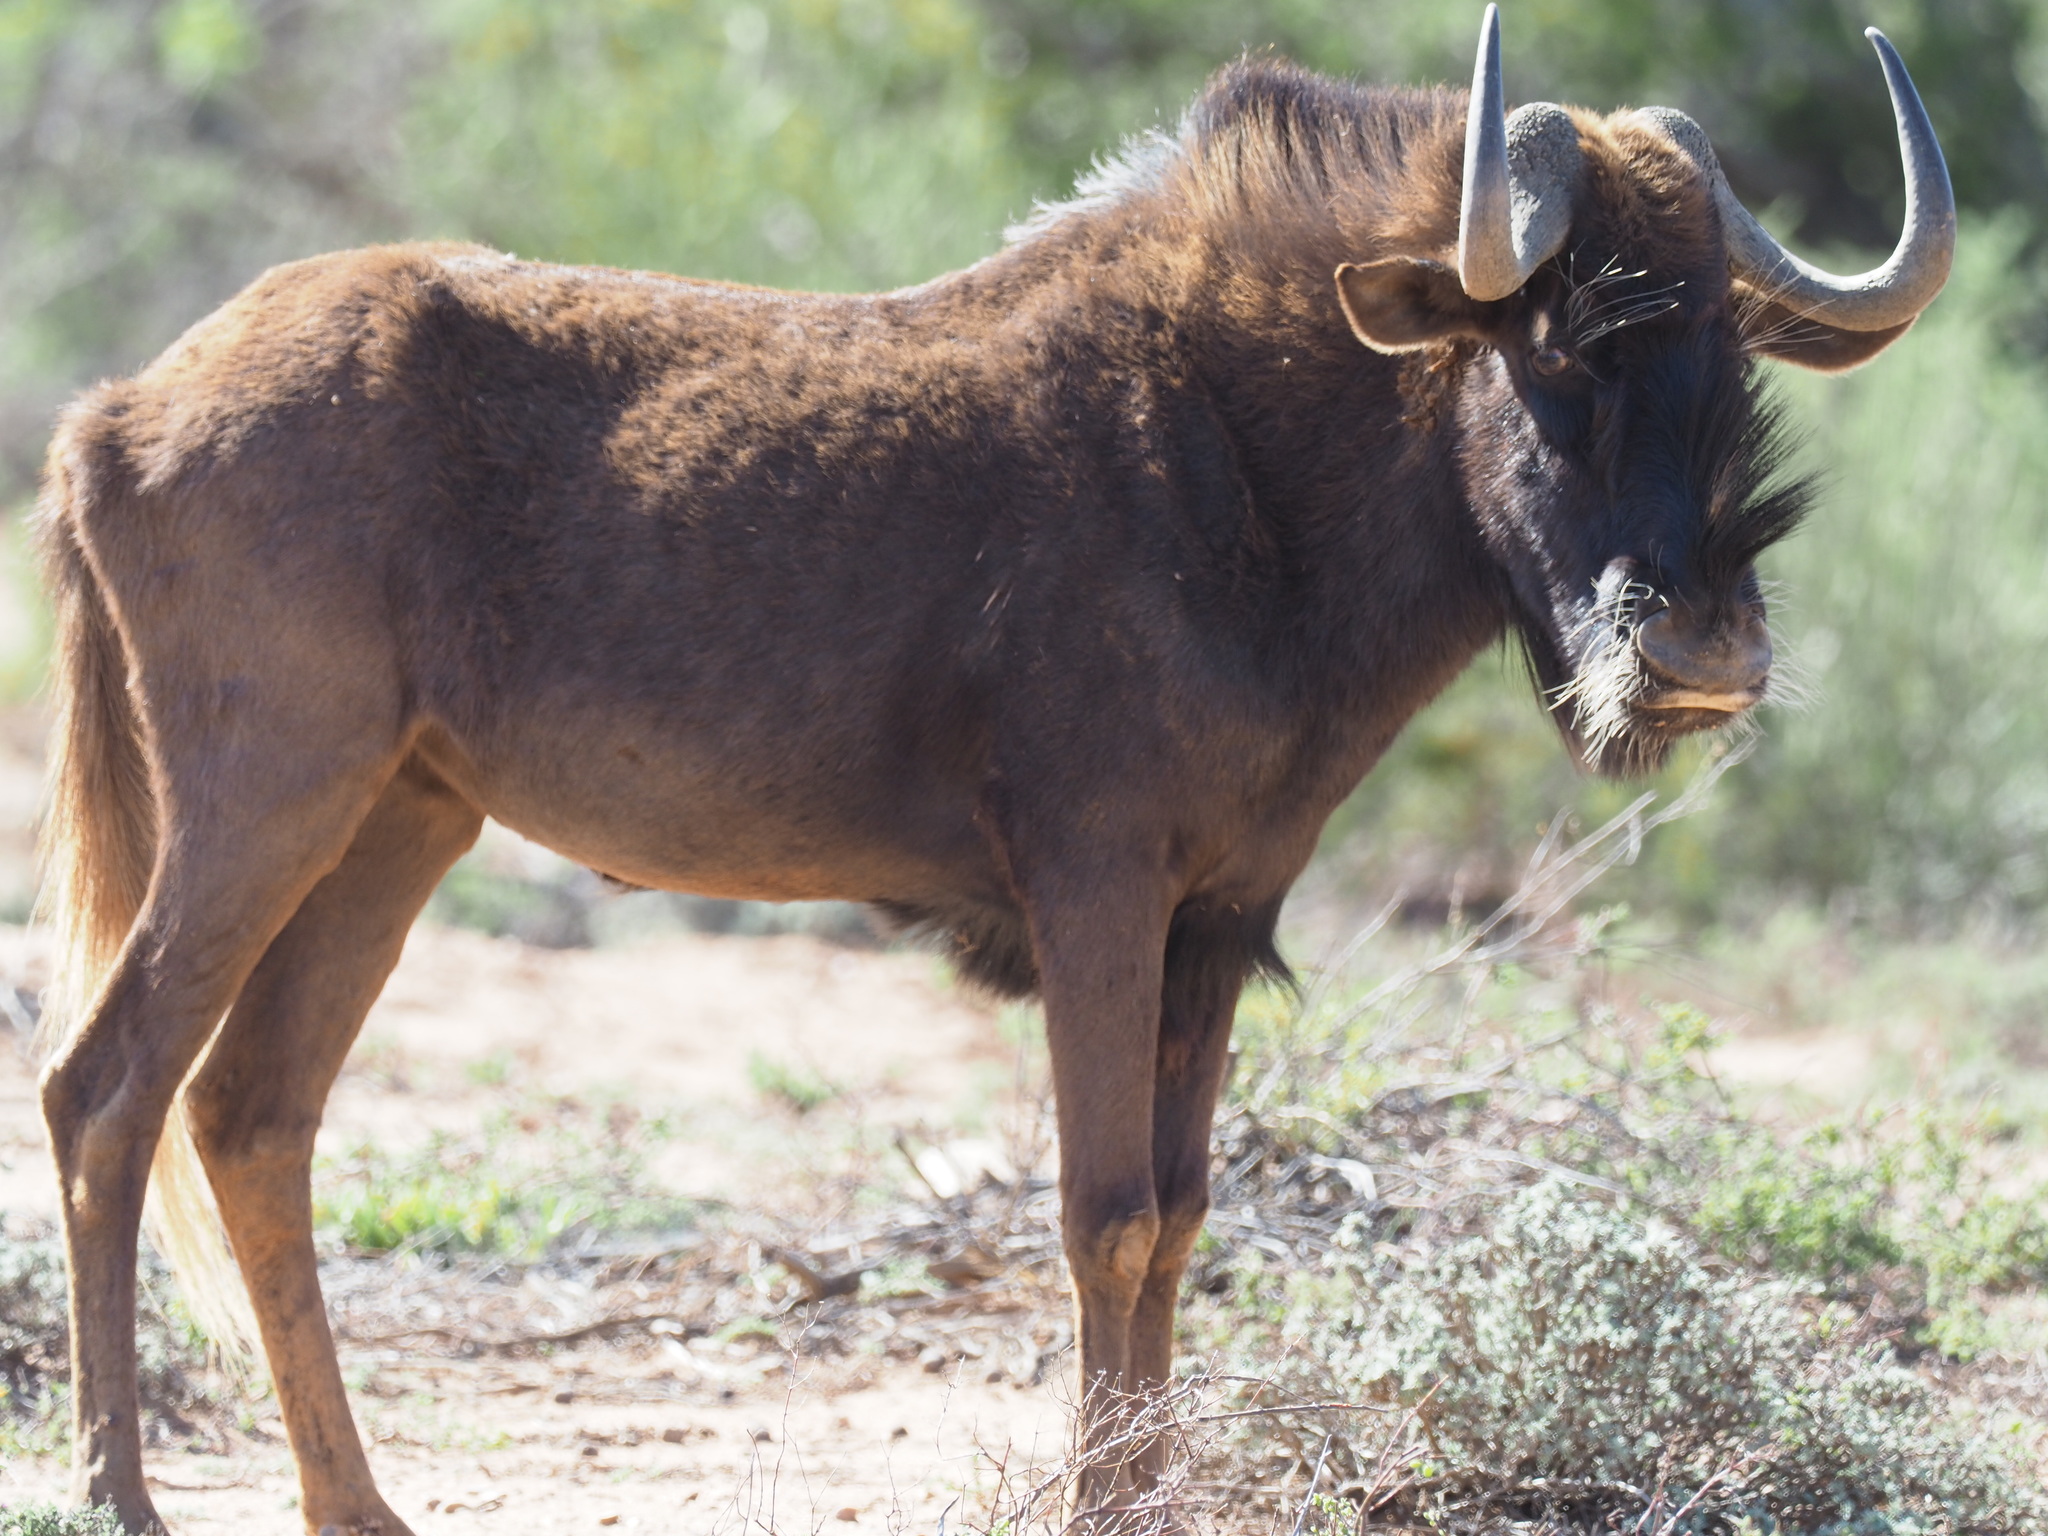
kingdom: Animalia
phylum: Chordata
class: Mammalia
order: Artiodactyla
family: Bovidae
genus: Connochaetes
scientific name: Connochaetes gnou
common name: Black wildebeest
